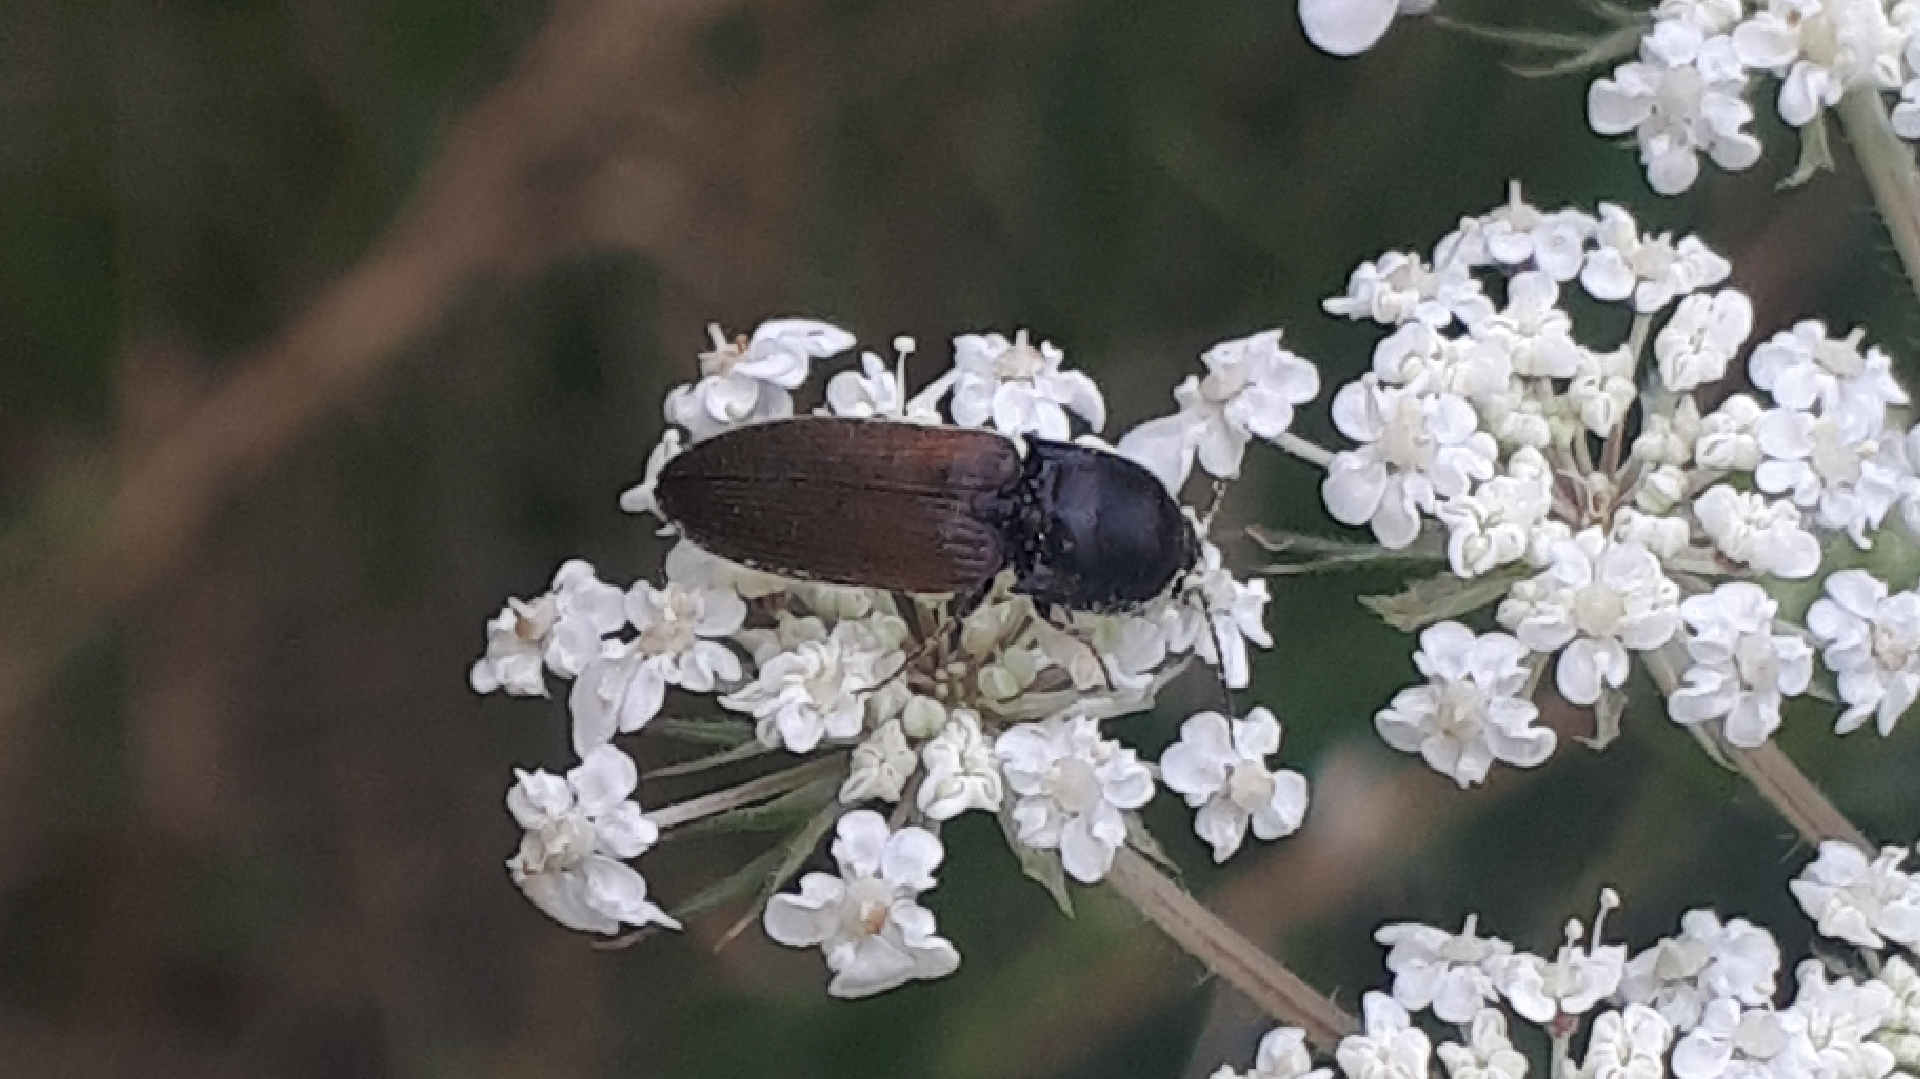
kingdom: Animalia
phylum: Arthropoda
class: Insecta
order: Coleoptera
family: Elateridae
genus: Agriotes
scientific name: Agriotes ustulatus
